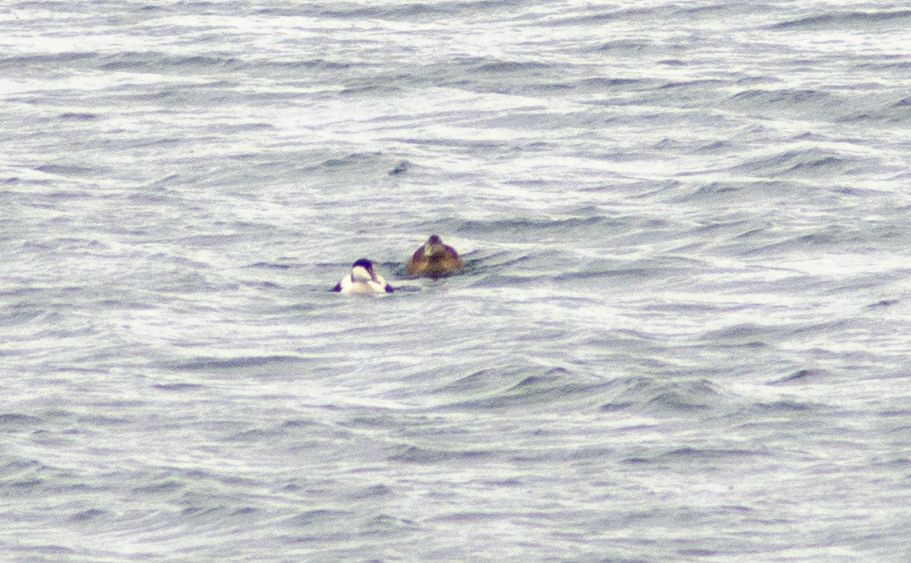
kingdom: Animalia
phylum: Chordata
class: Aves
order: Anseriformes
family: Anatidae
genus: Somateria
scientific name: Somateria mollissima
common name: Common eider
